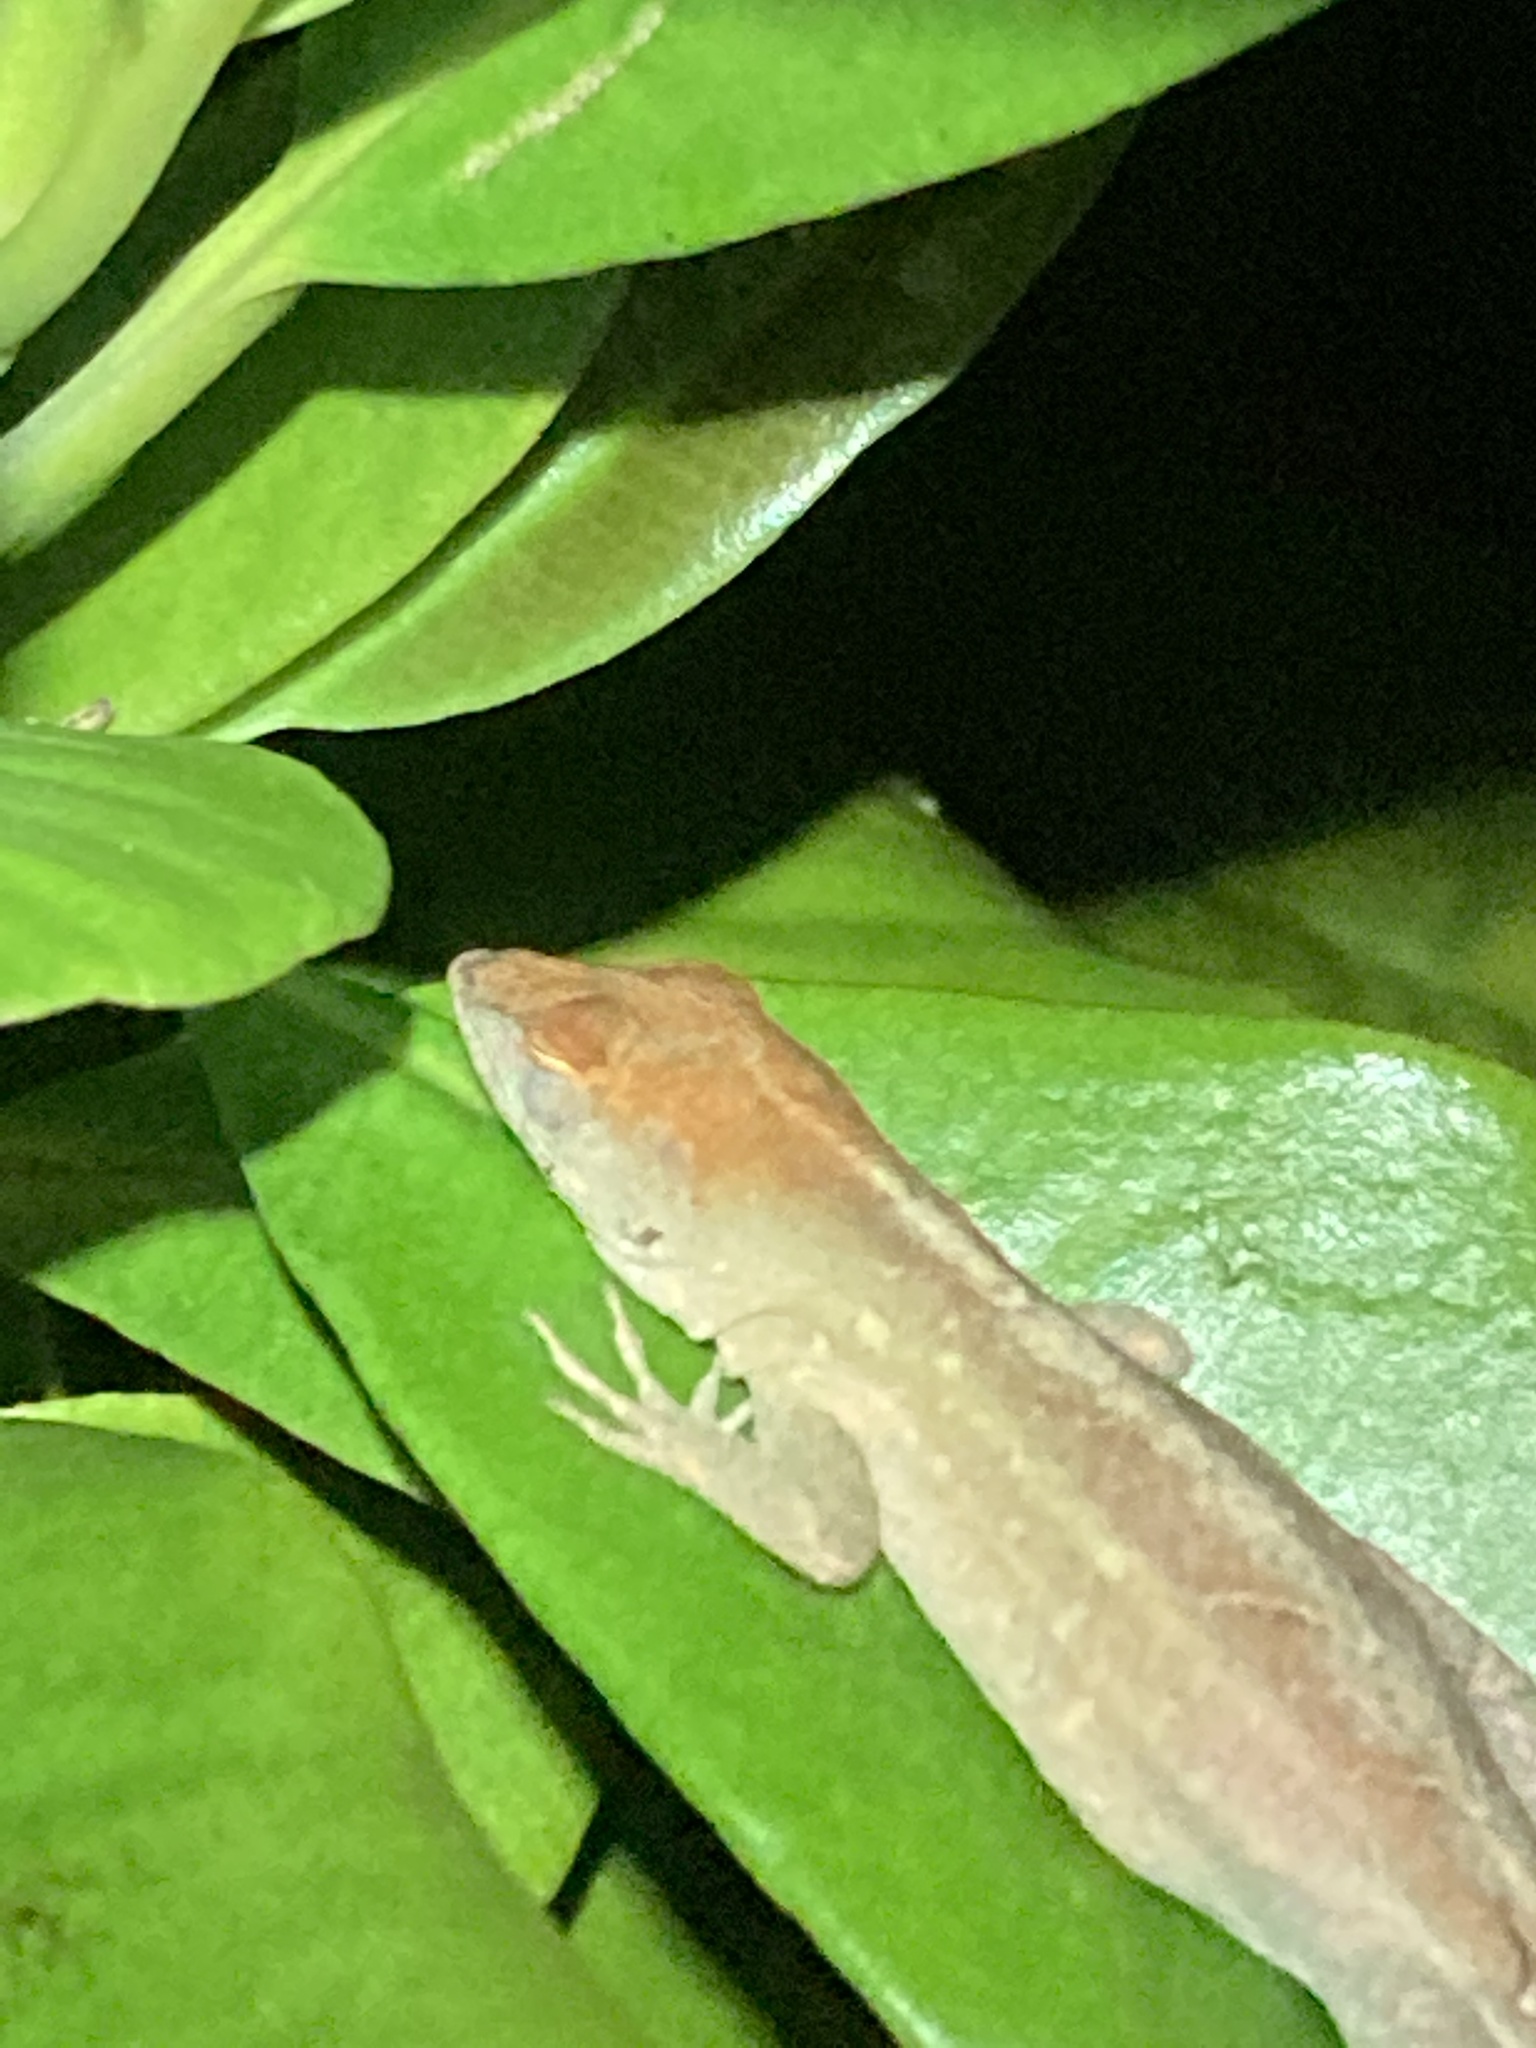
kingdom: Animalia
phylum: Chordata
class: Squamata
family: Dactyloidae
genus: Anolis
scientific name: Anolis sagrei
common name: Brown anole
